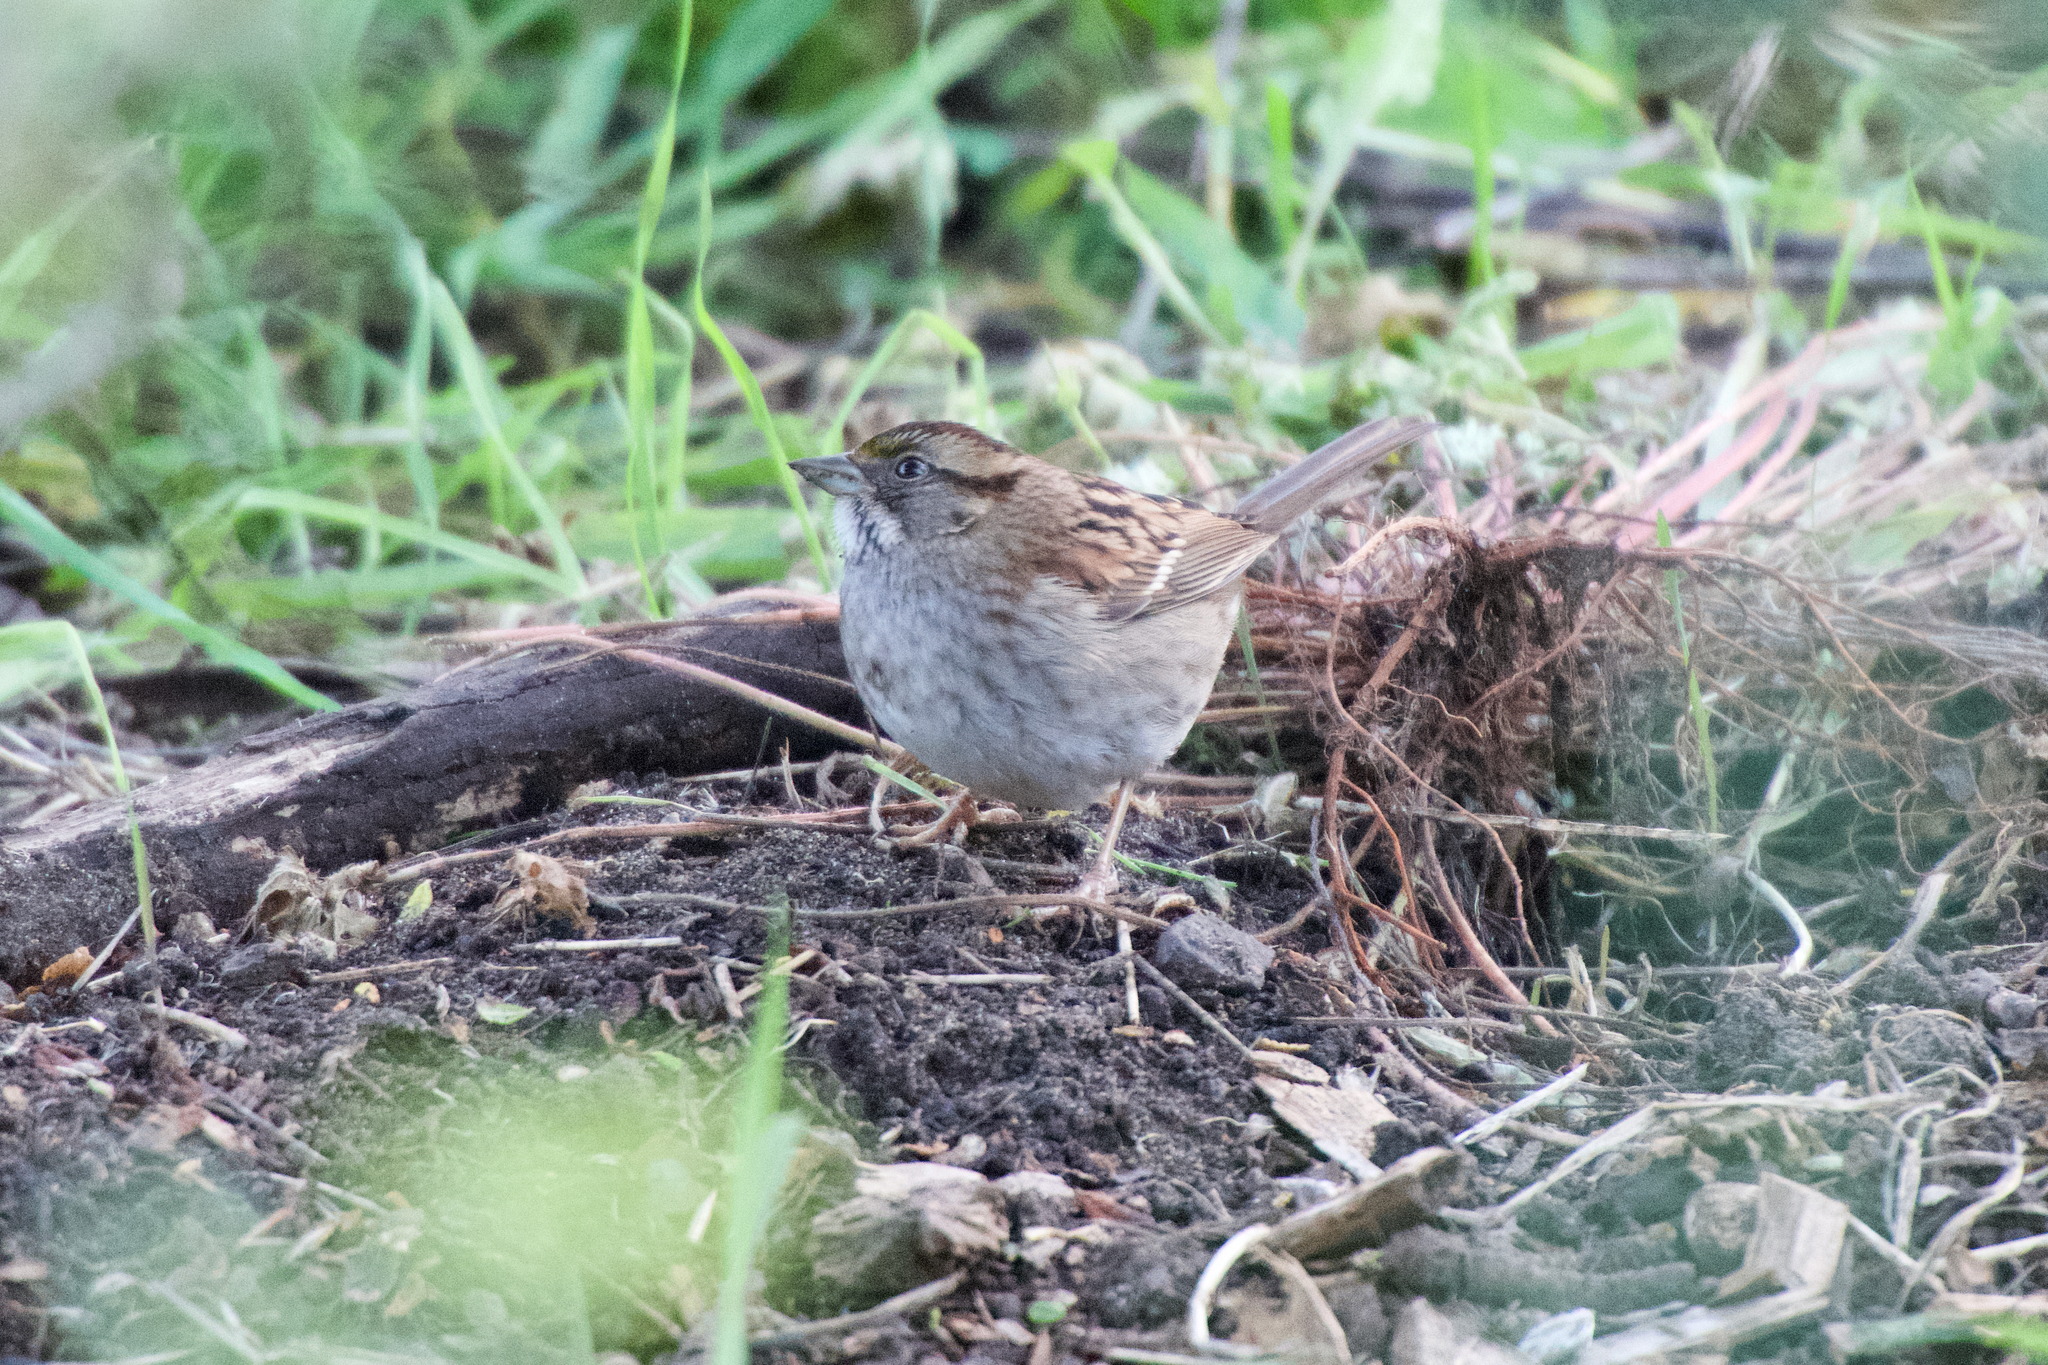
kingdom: Animalia
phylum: Chordata
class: Aves
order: Passeriformes
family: Passerellidae
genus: Zonotrichia
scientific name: Zonotrichia albicollis
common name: White-throated sparrow
